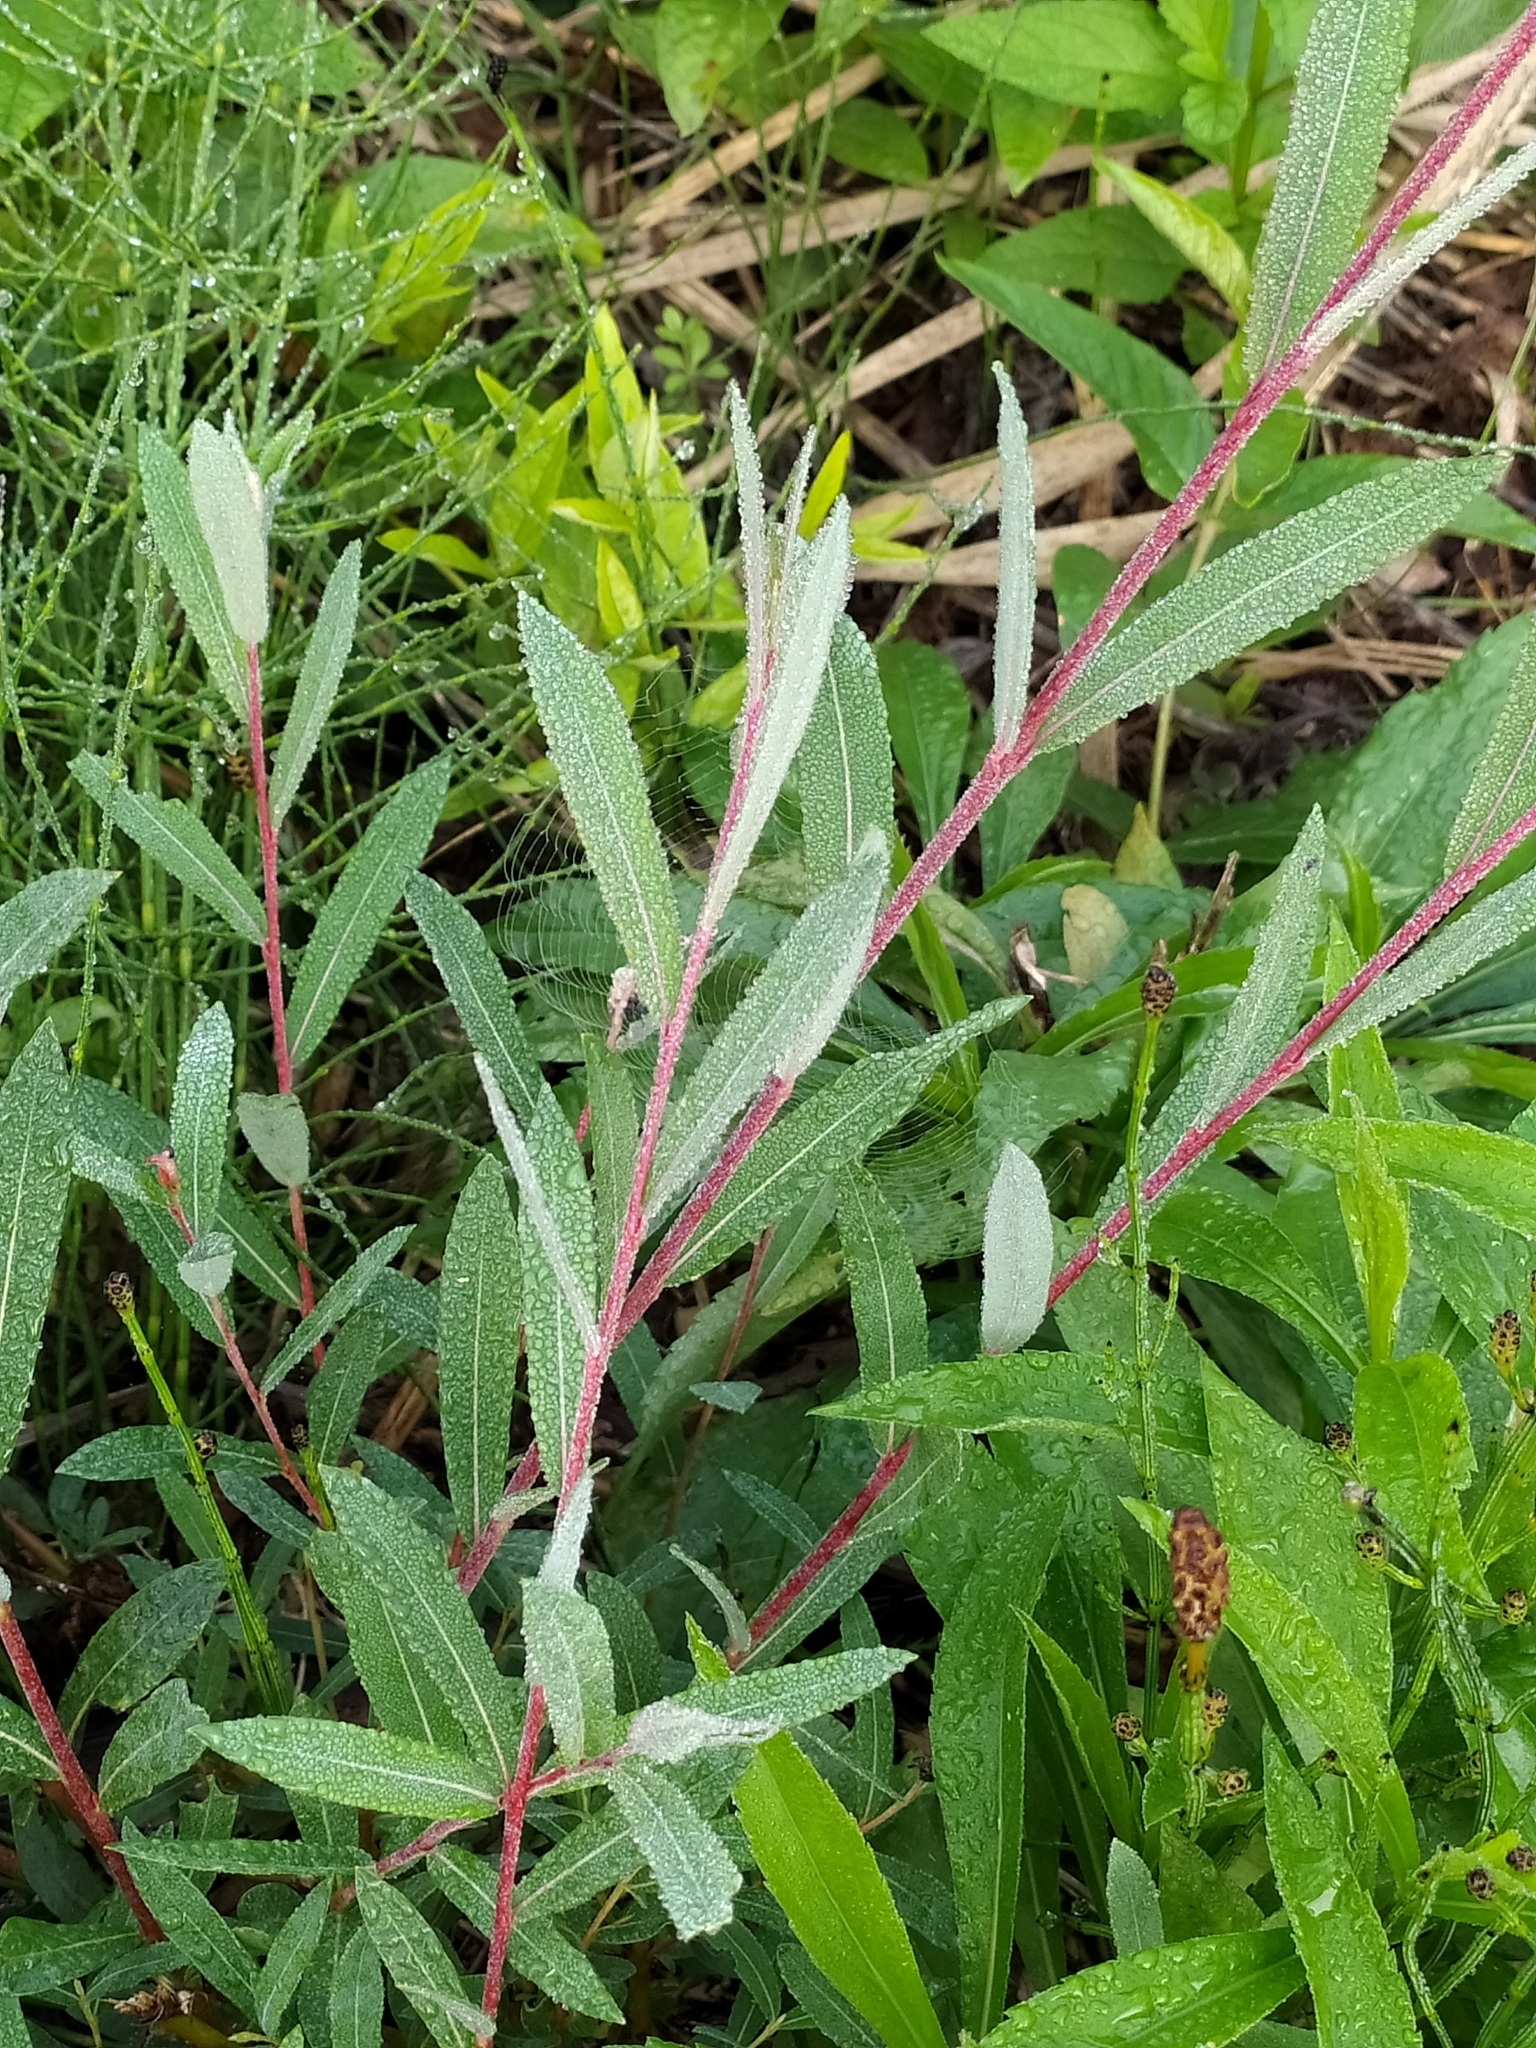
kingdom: Plantae
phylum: Tracheophyta
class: Magnoliopsida
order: Malpighiales
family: Salicaceae
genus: Salix
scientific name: Salix purpurea
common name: Purple willow
